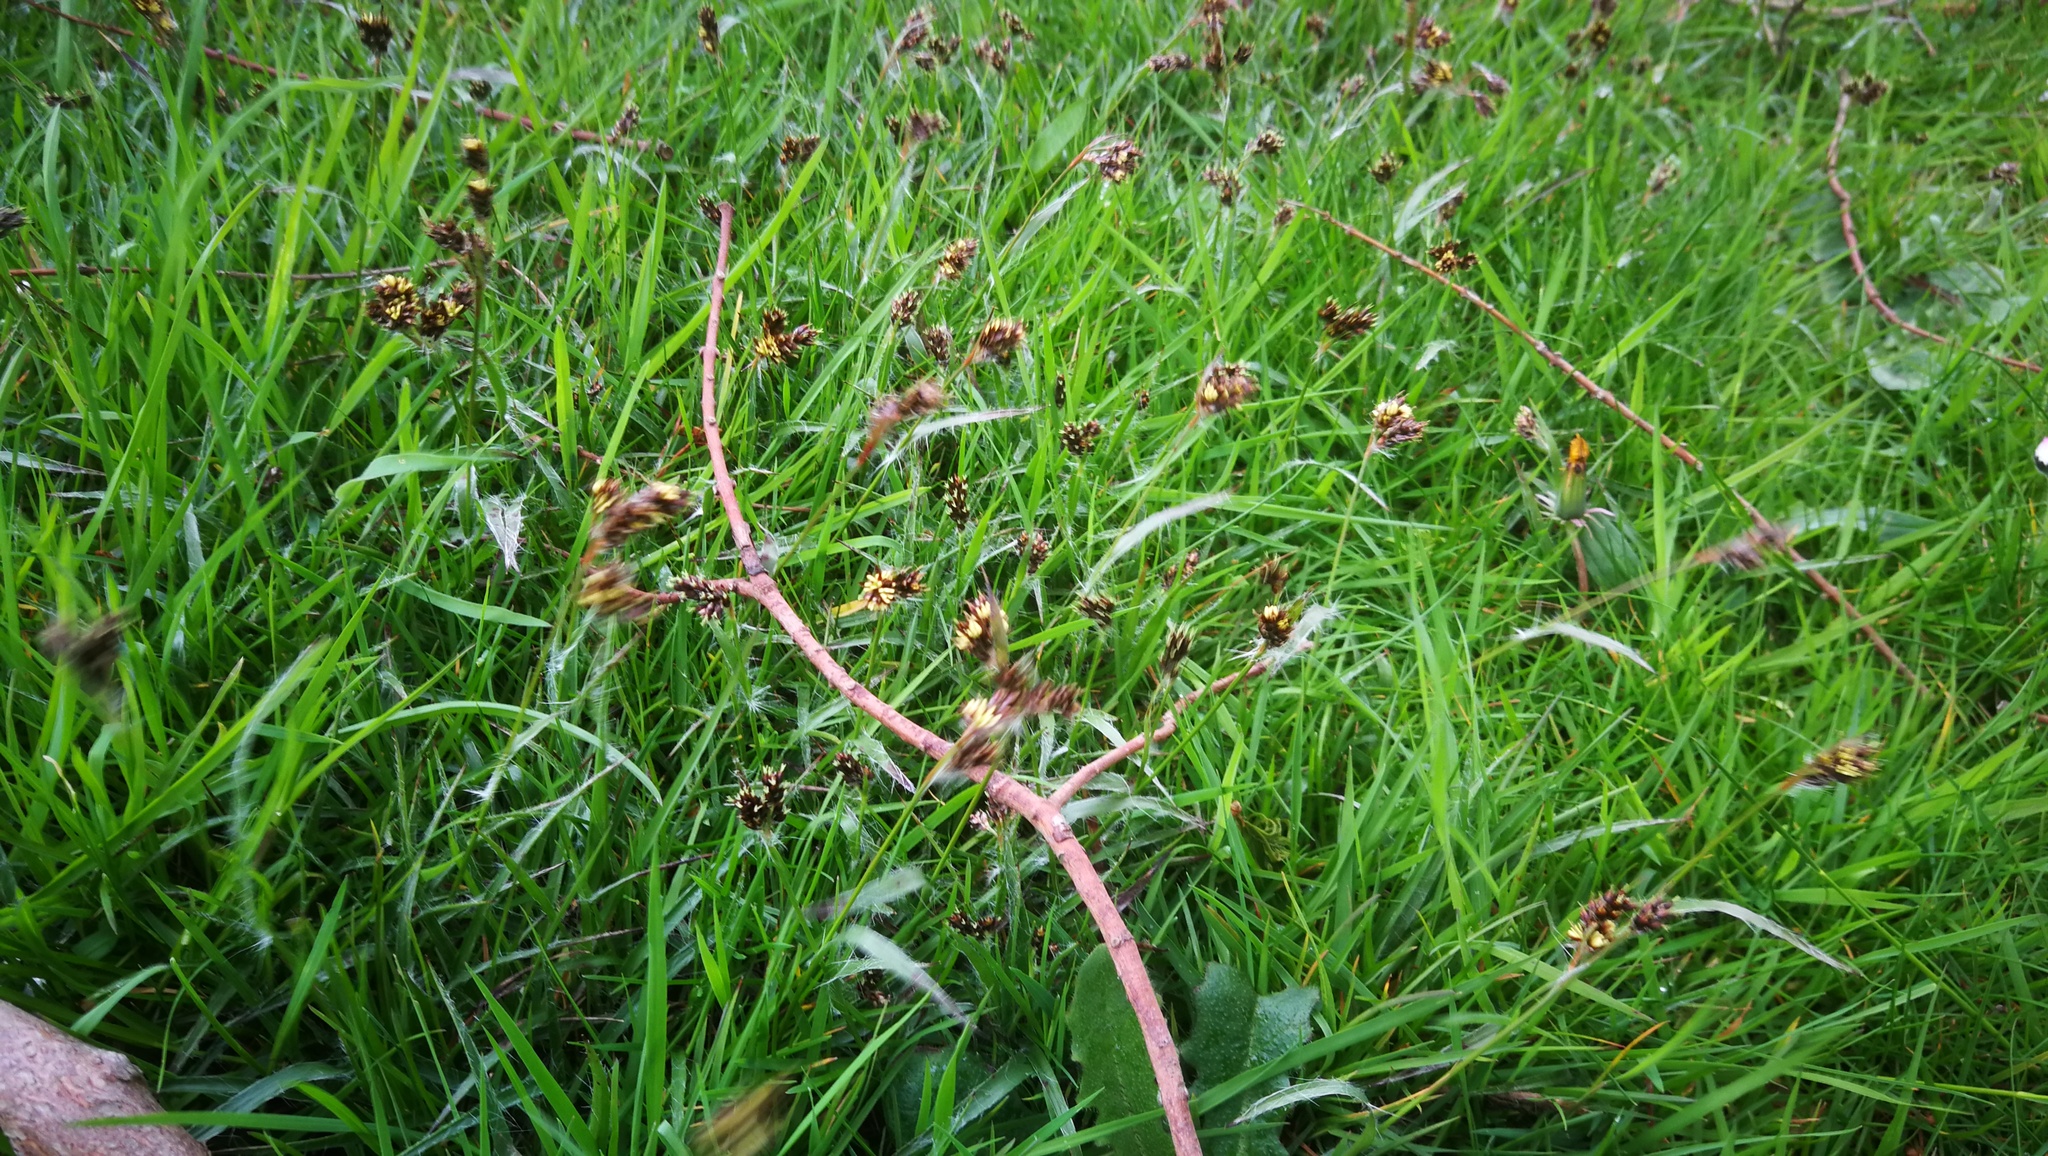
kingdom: Plantae
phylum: Tracheophyta
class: Liliopsida
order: Poales
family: Juncaceae
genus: Luzula
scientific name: Luzula campestris
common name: Field wood-rush
